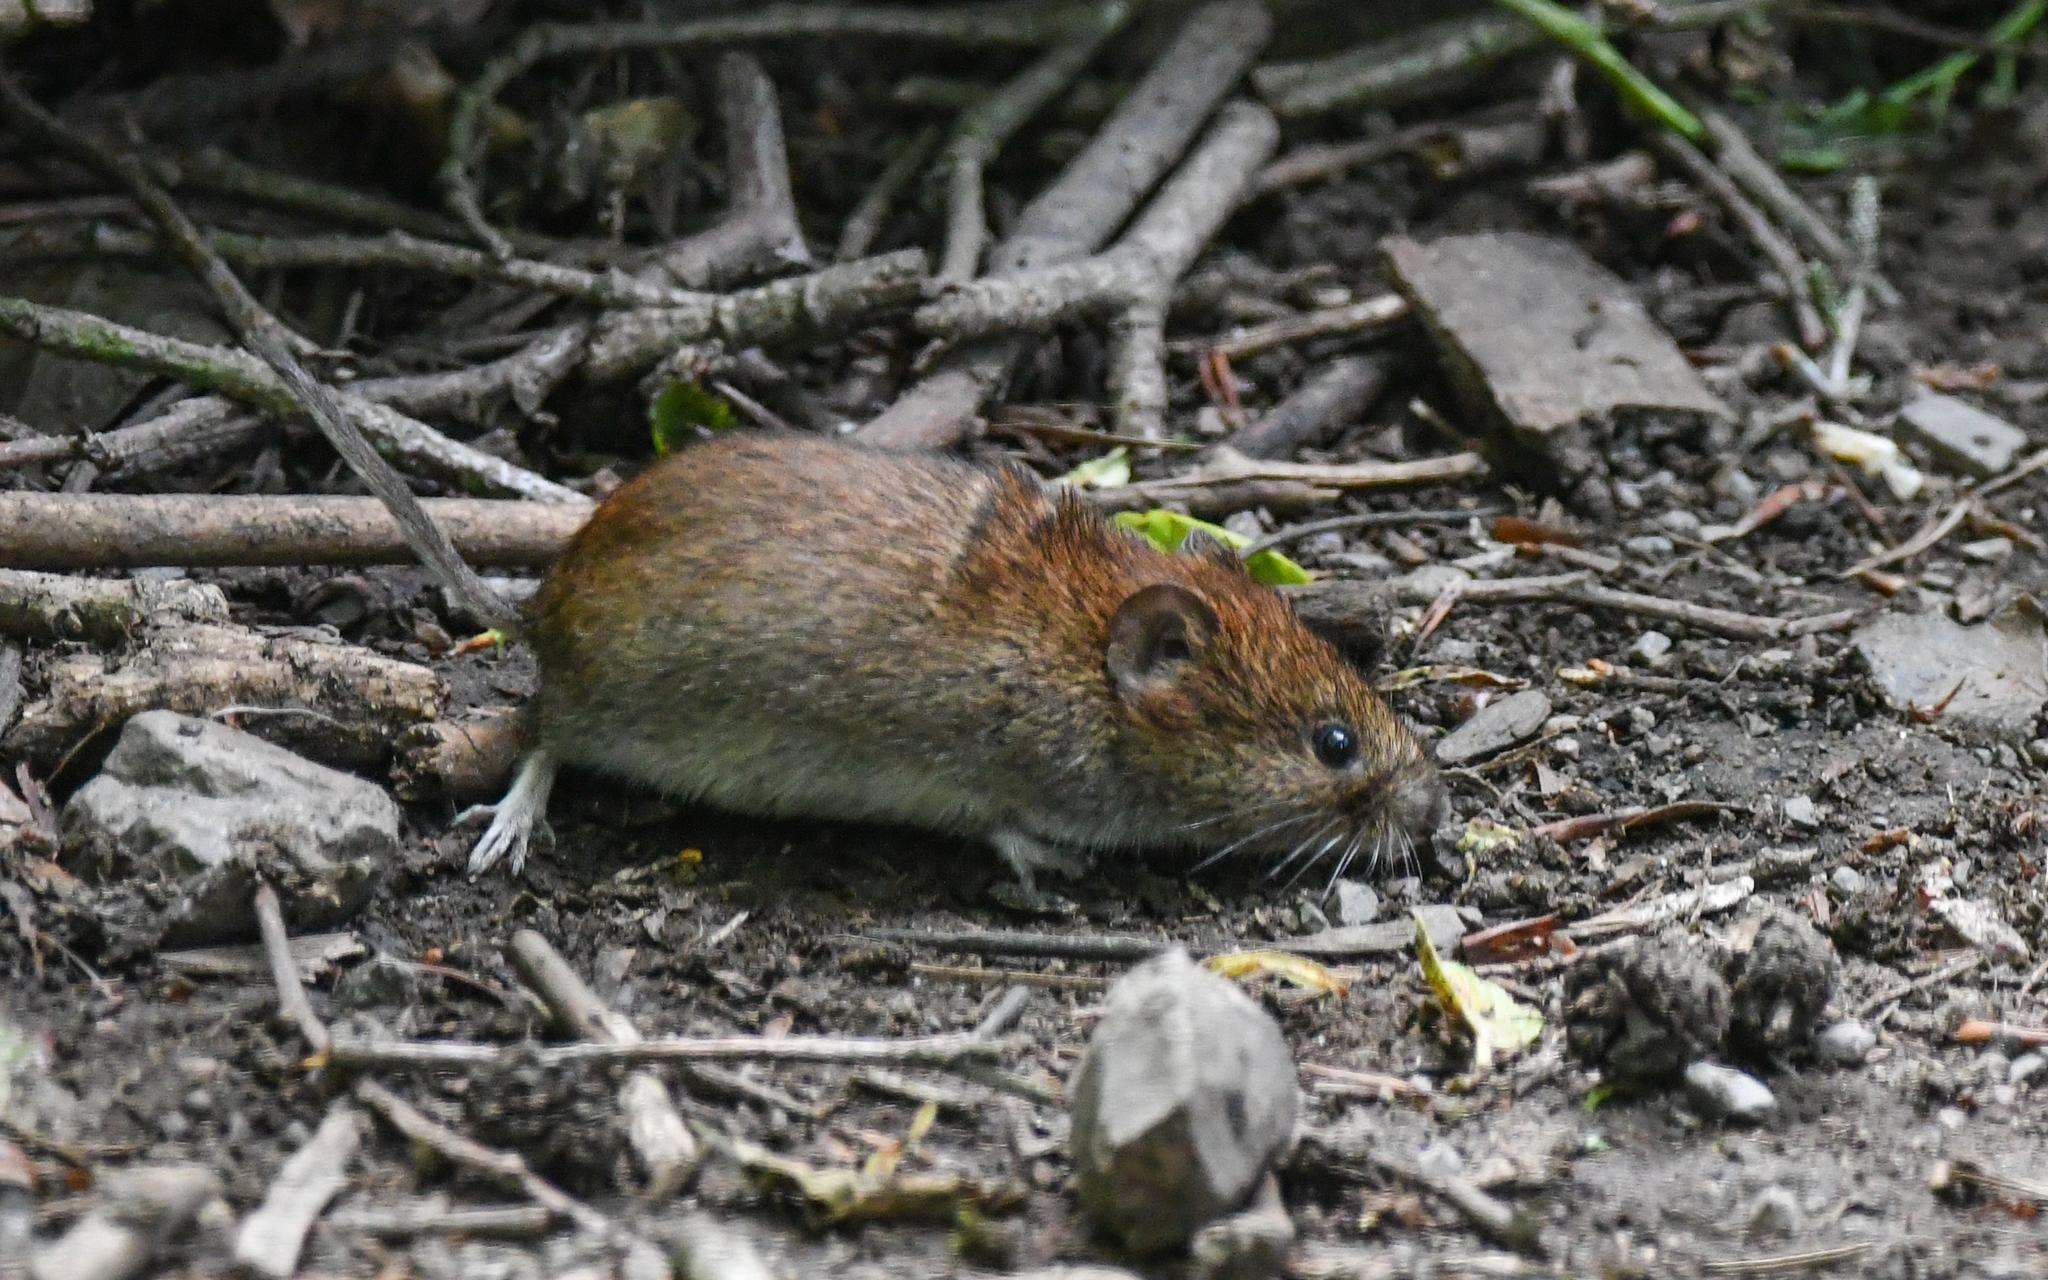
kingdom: Animalia
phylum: Chordata
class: Mammalia
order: Rodentia
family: Cricetidae
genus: Myodes
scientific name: Myodes glareolus
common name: Bank vole
